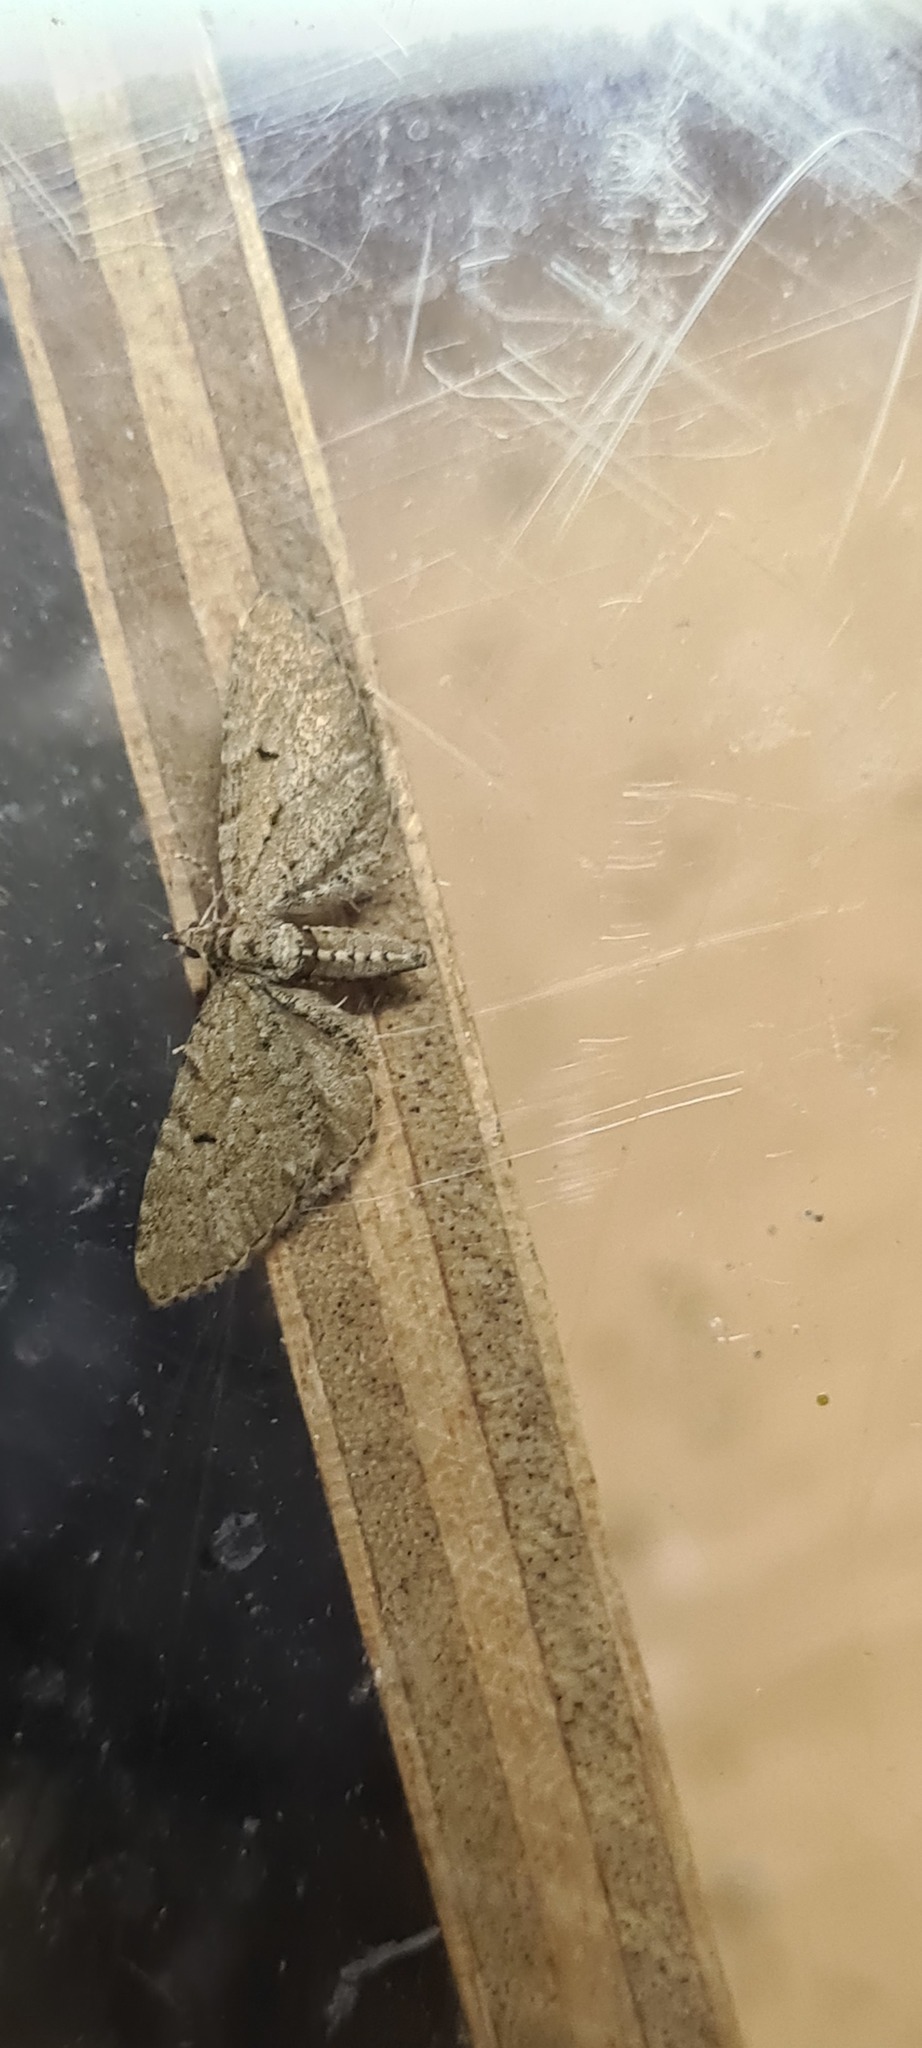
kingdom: Animalia
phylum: Arthropoda
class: Insecta
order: Lepidoptera
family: Geometridae
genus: Eupithecia
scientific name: Eupithecia intricata
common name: Freyers pug
